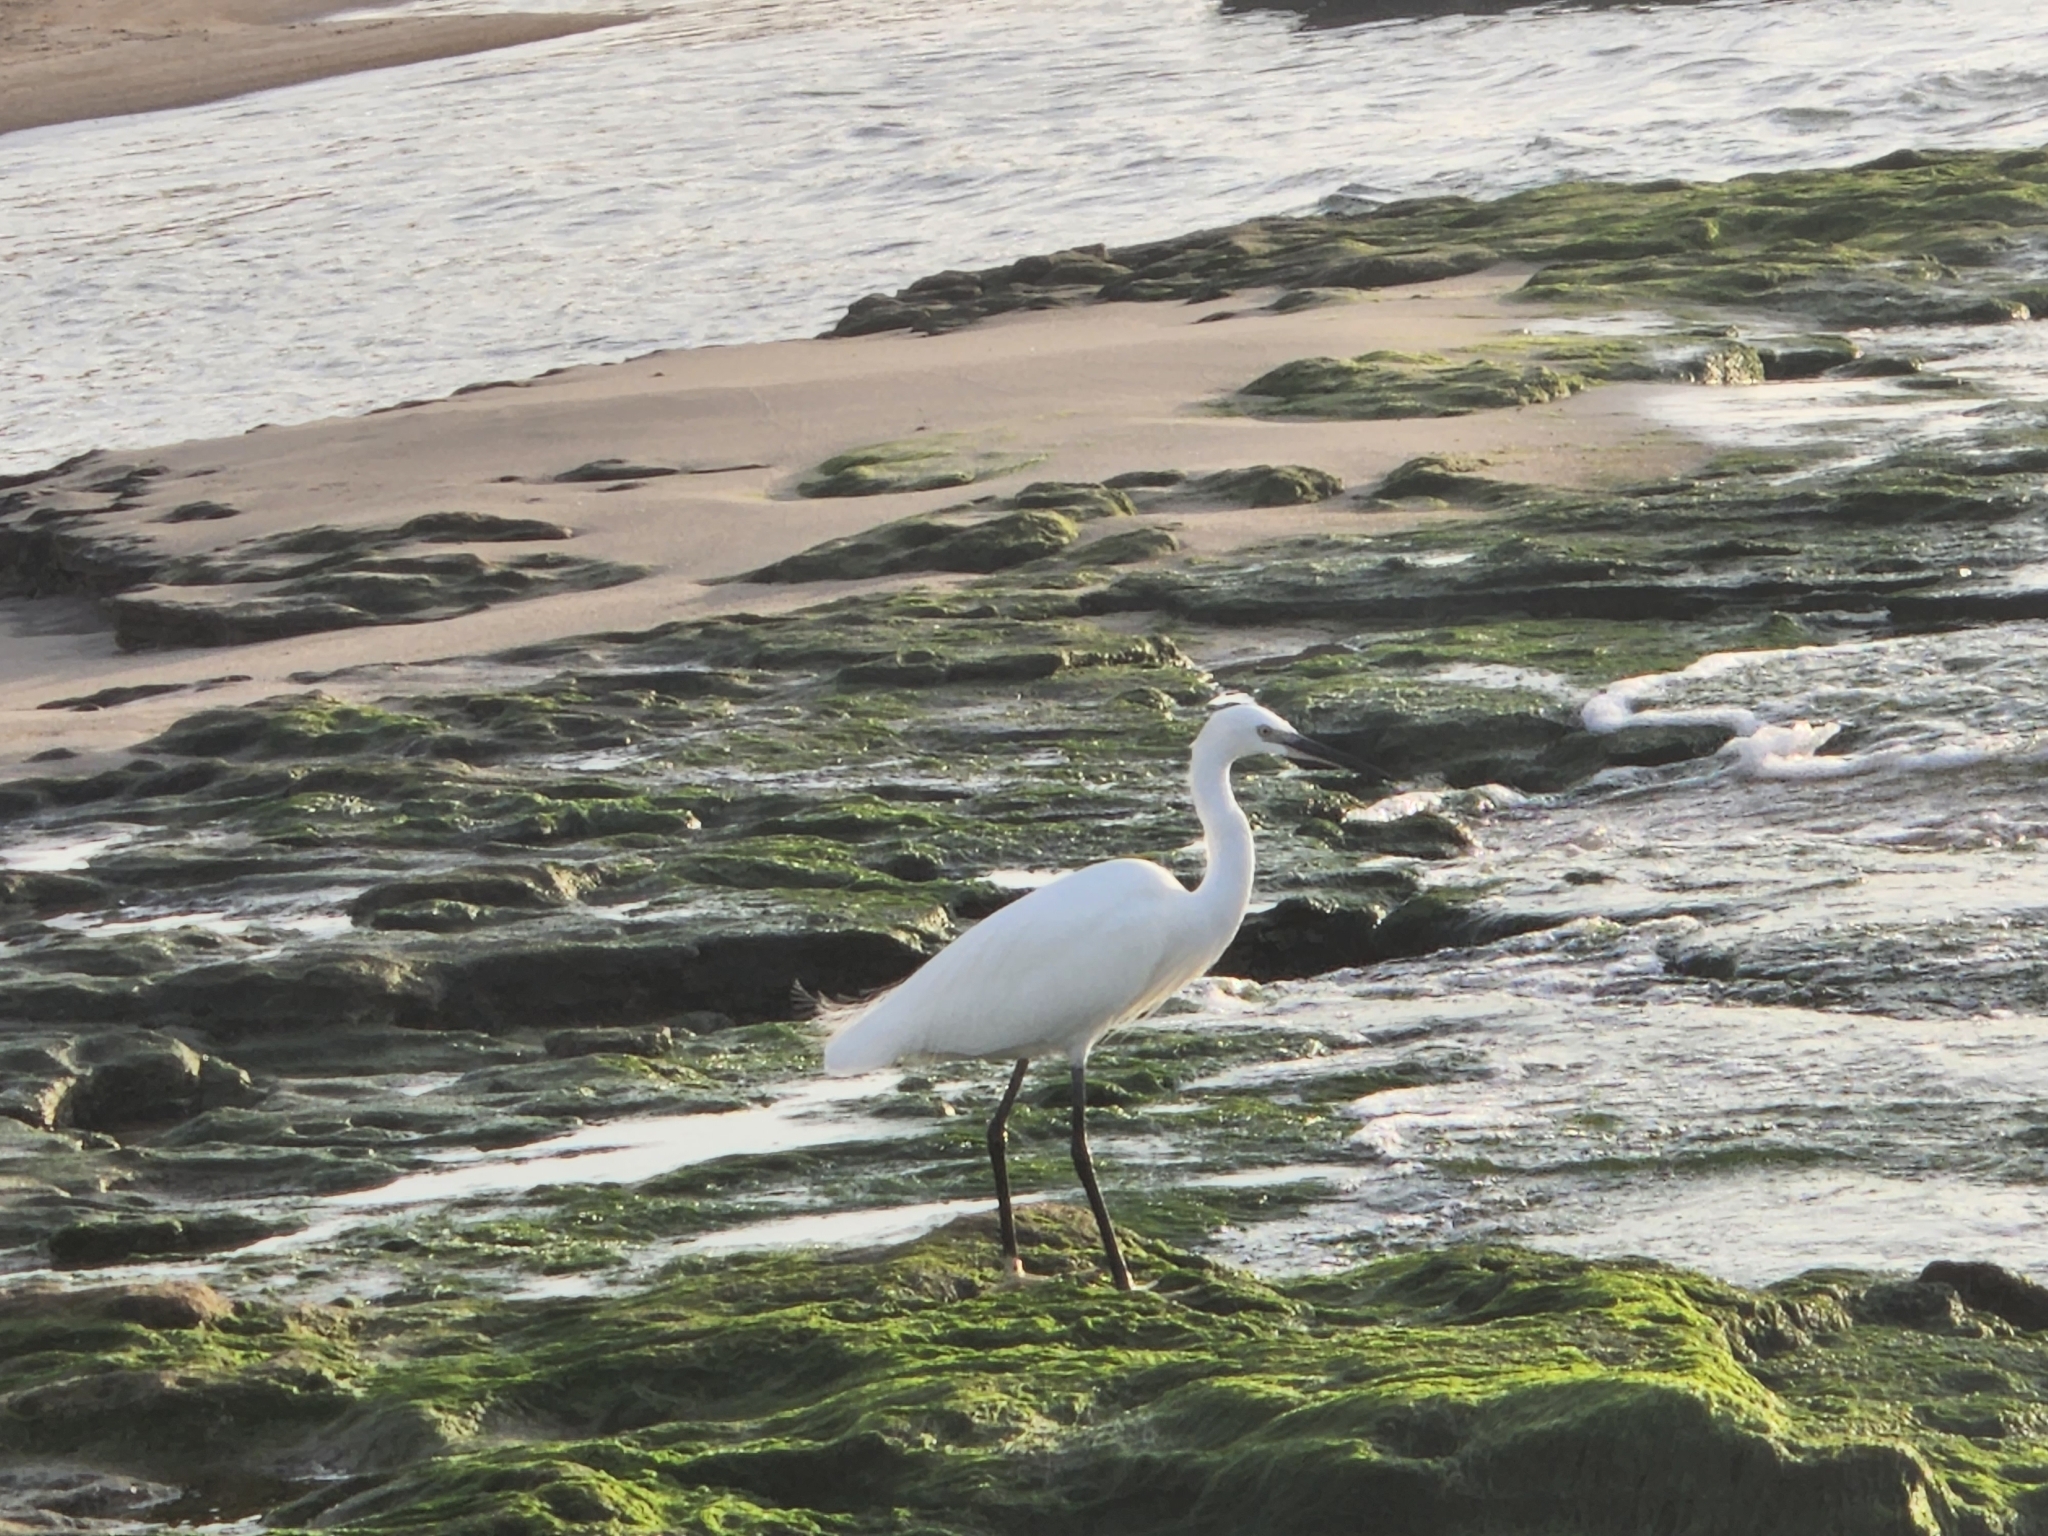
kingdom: Animalia
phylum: Chordata
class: Aves
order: Pelecaniformes
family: Ardeidae
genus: Egretta
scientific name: Egretta garzetta
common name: Little egret
